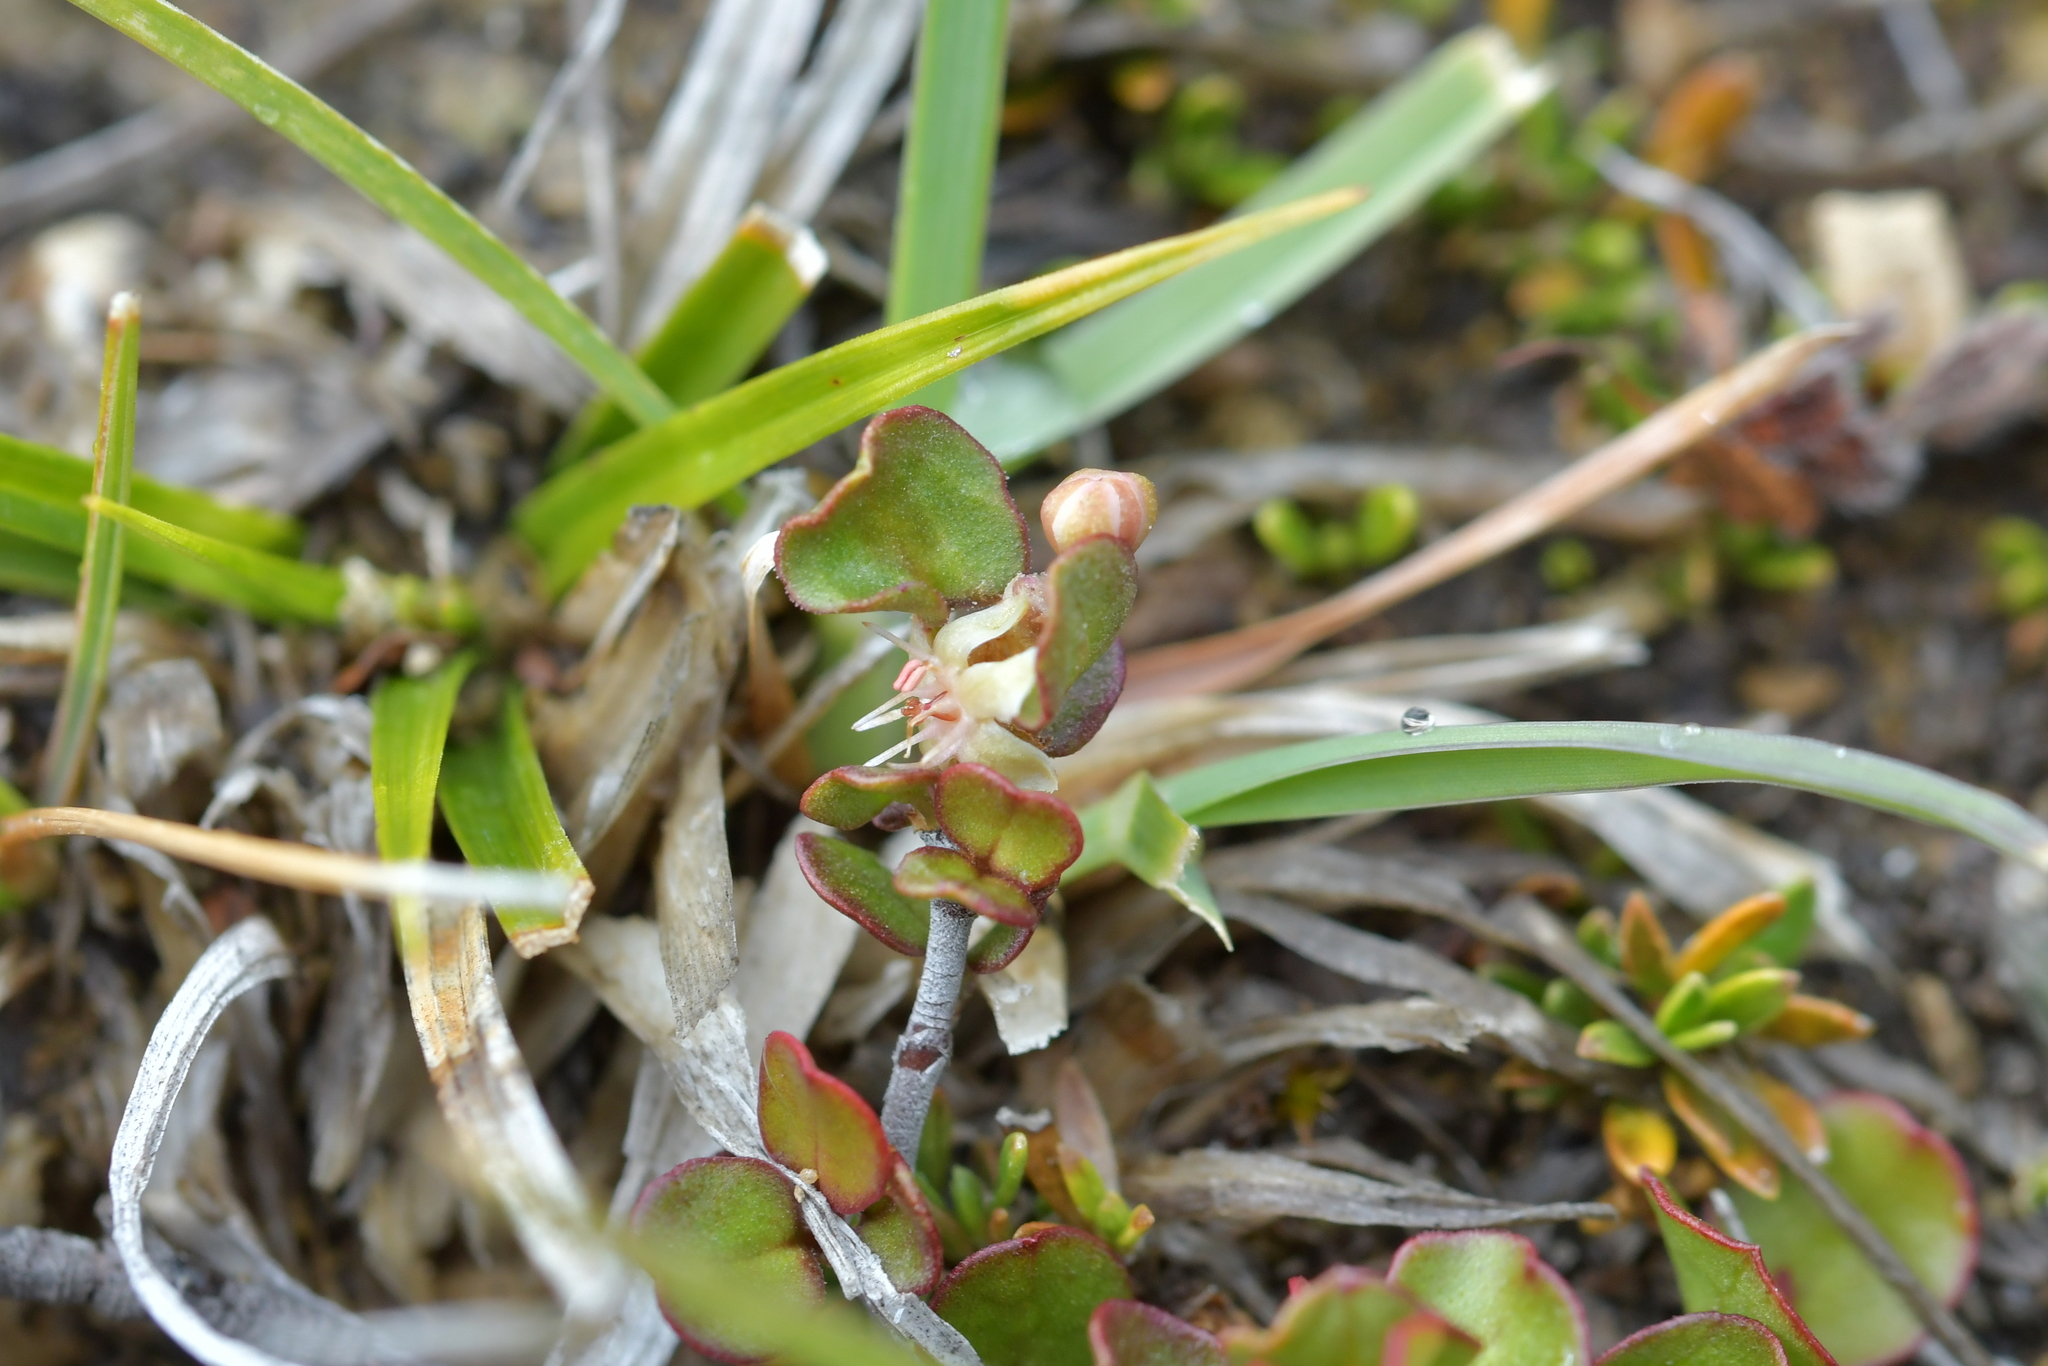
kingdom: Plantae
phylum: Tracheophyta
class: Magnoliopsida
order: Caryophyllales
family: Polygonaceae
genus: Muehlenbeckia
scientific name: Muehlenbeckia axillaris
